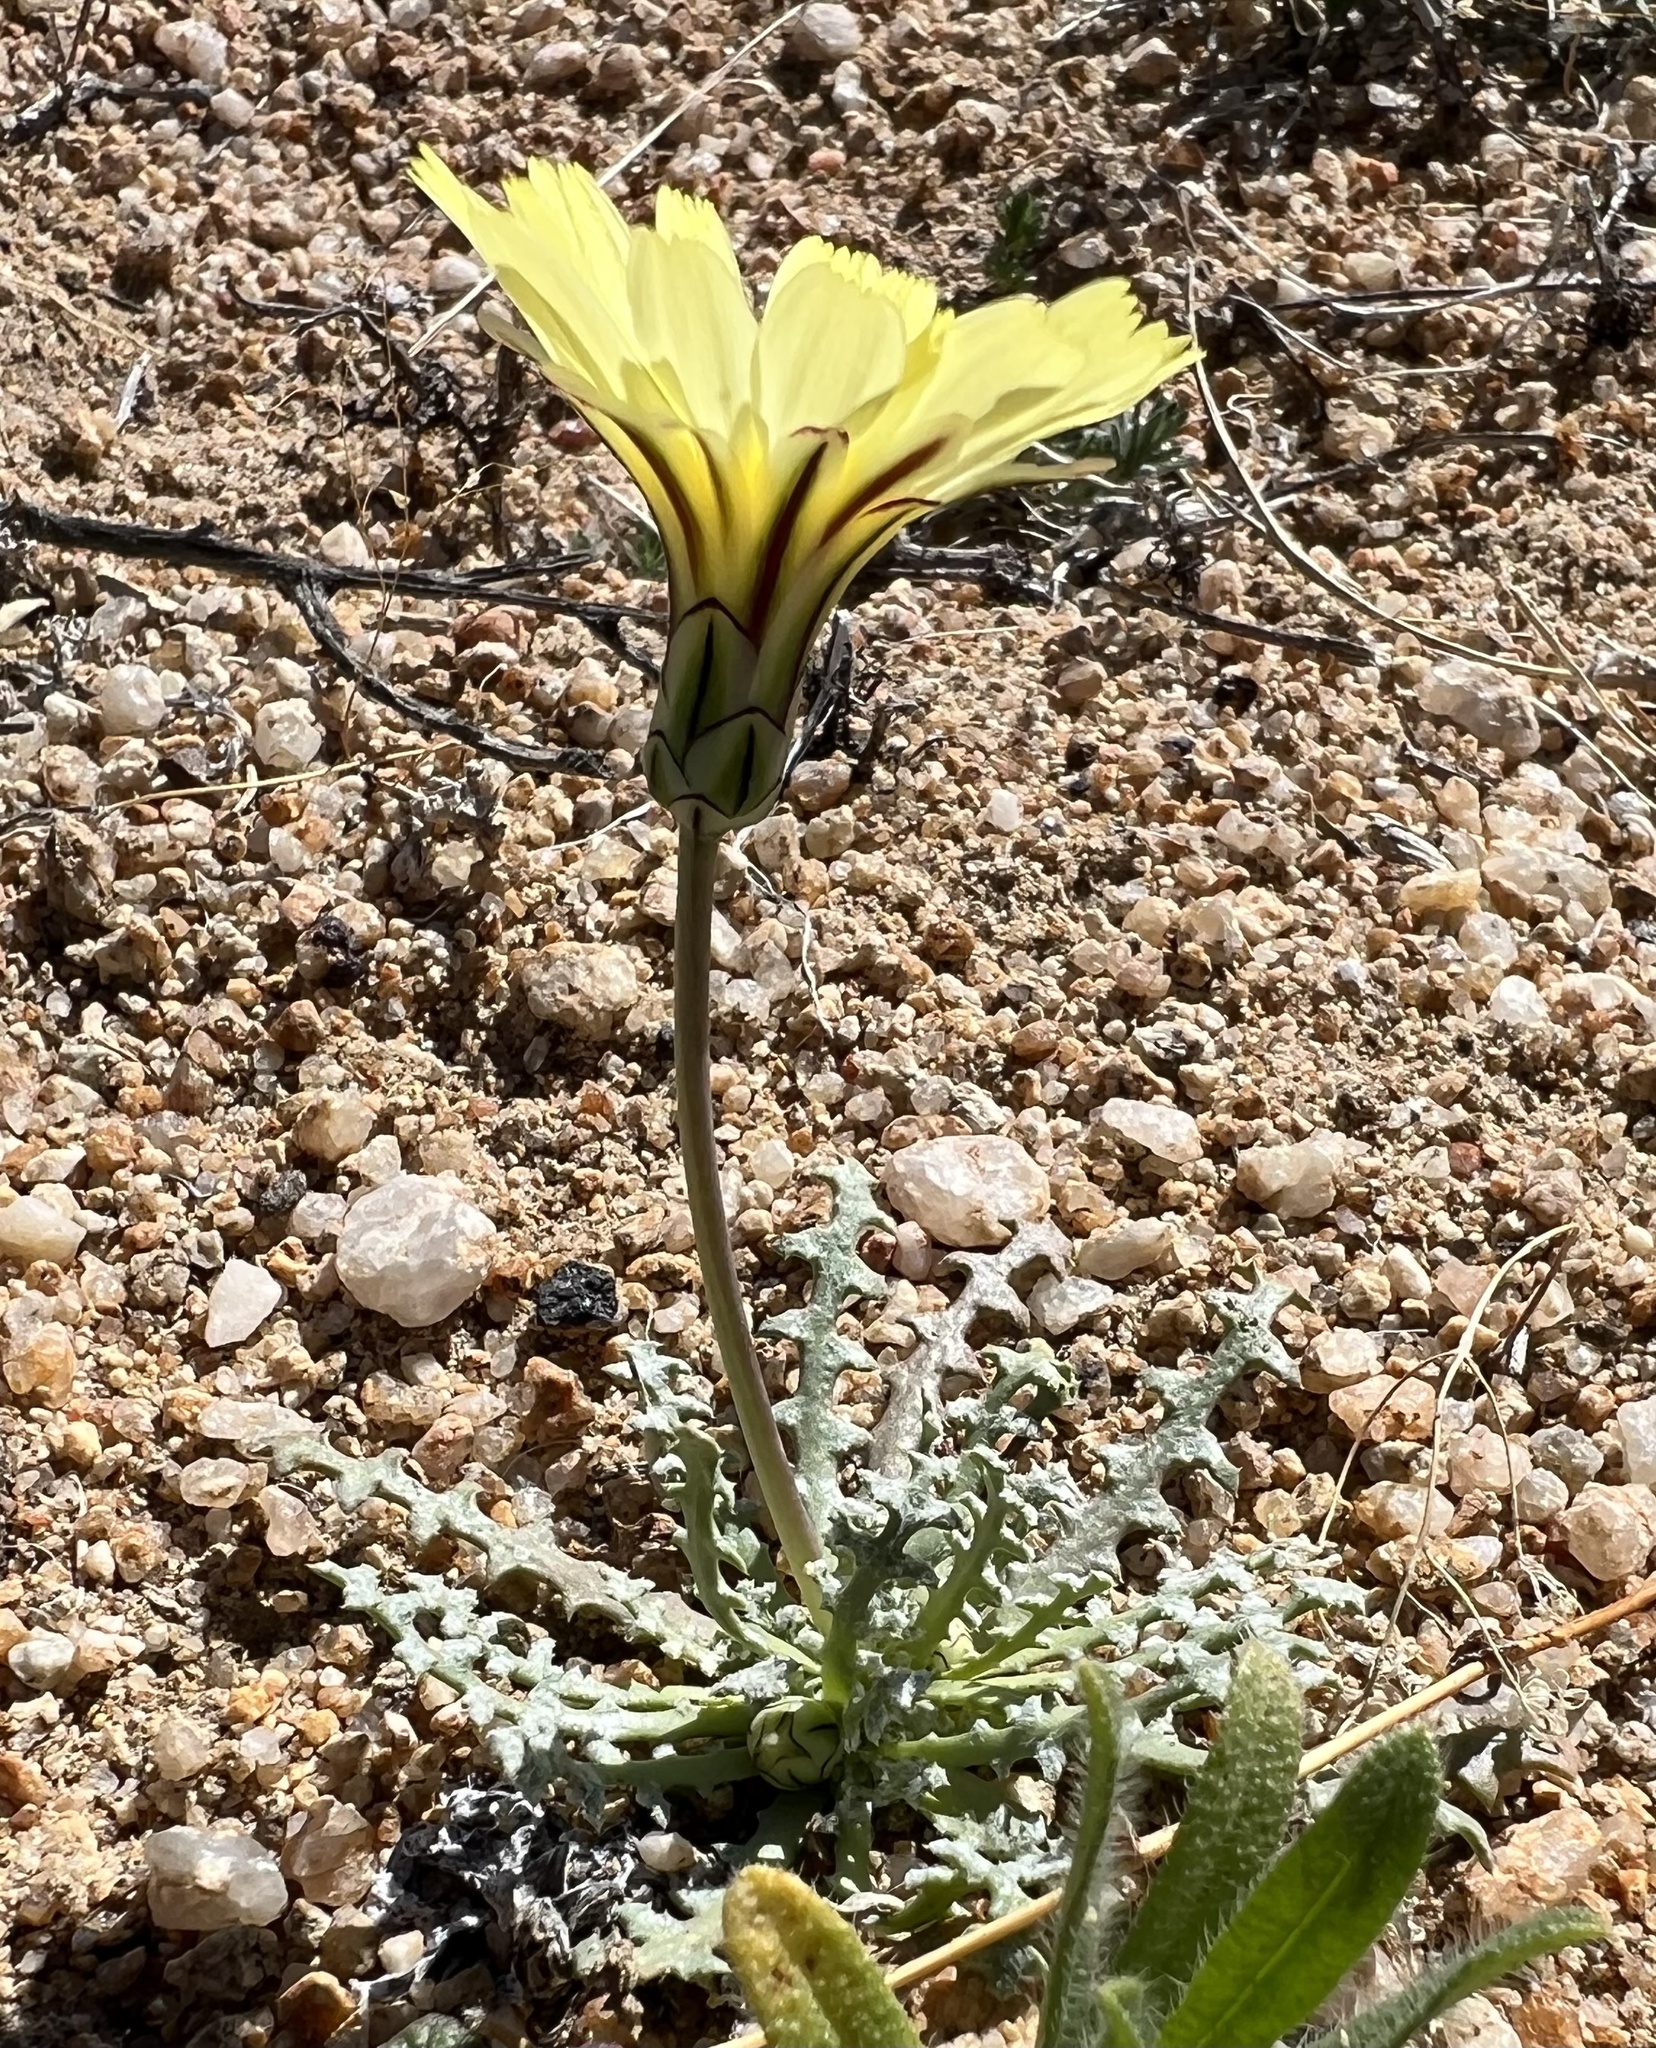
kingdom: Plantae
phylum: Tracheophyta
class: Magnoliopsida
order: Asterales
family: Asteraceae
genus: Anisocoma
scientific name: Anisocoma acaulis
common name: Scalebud
